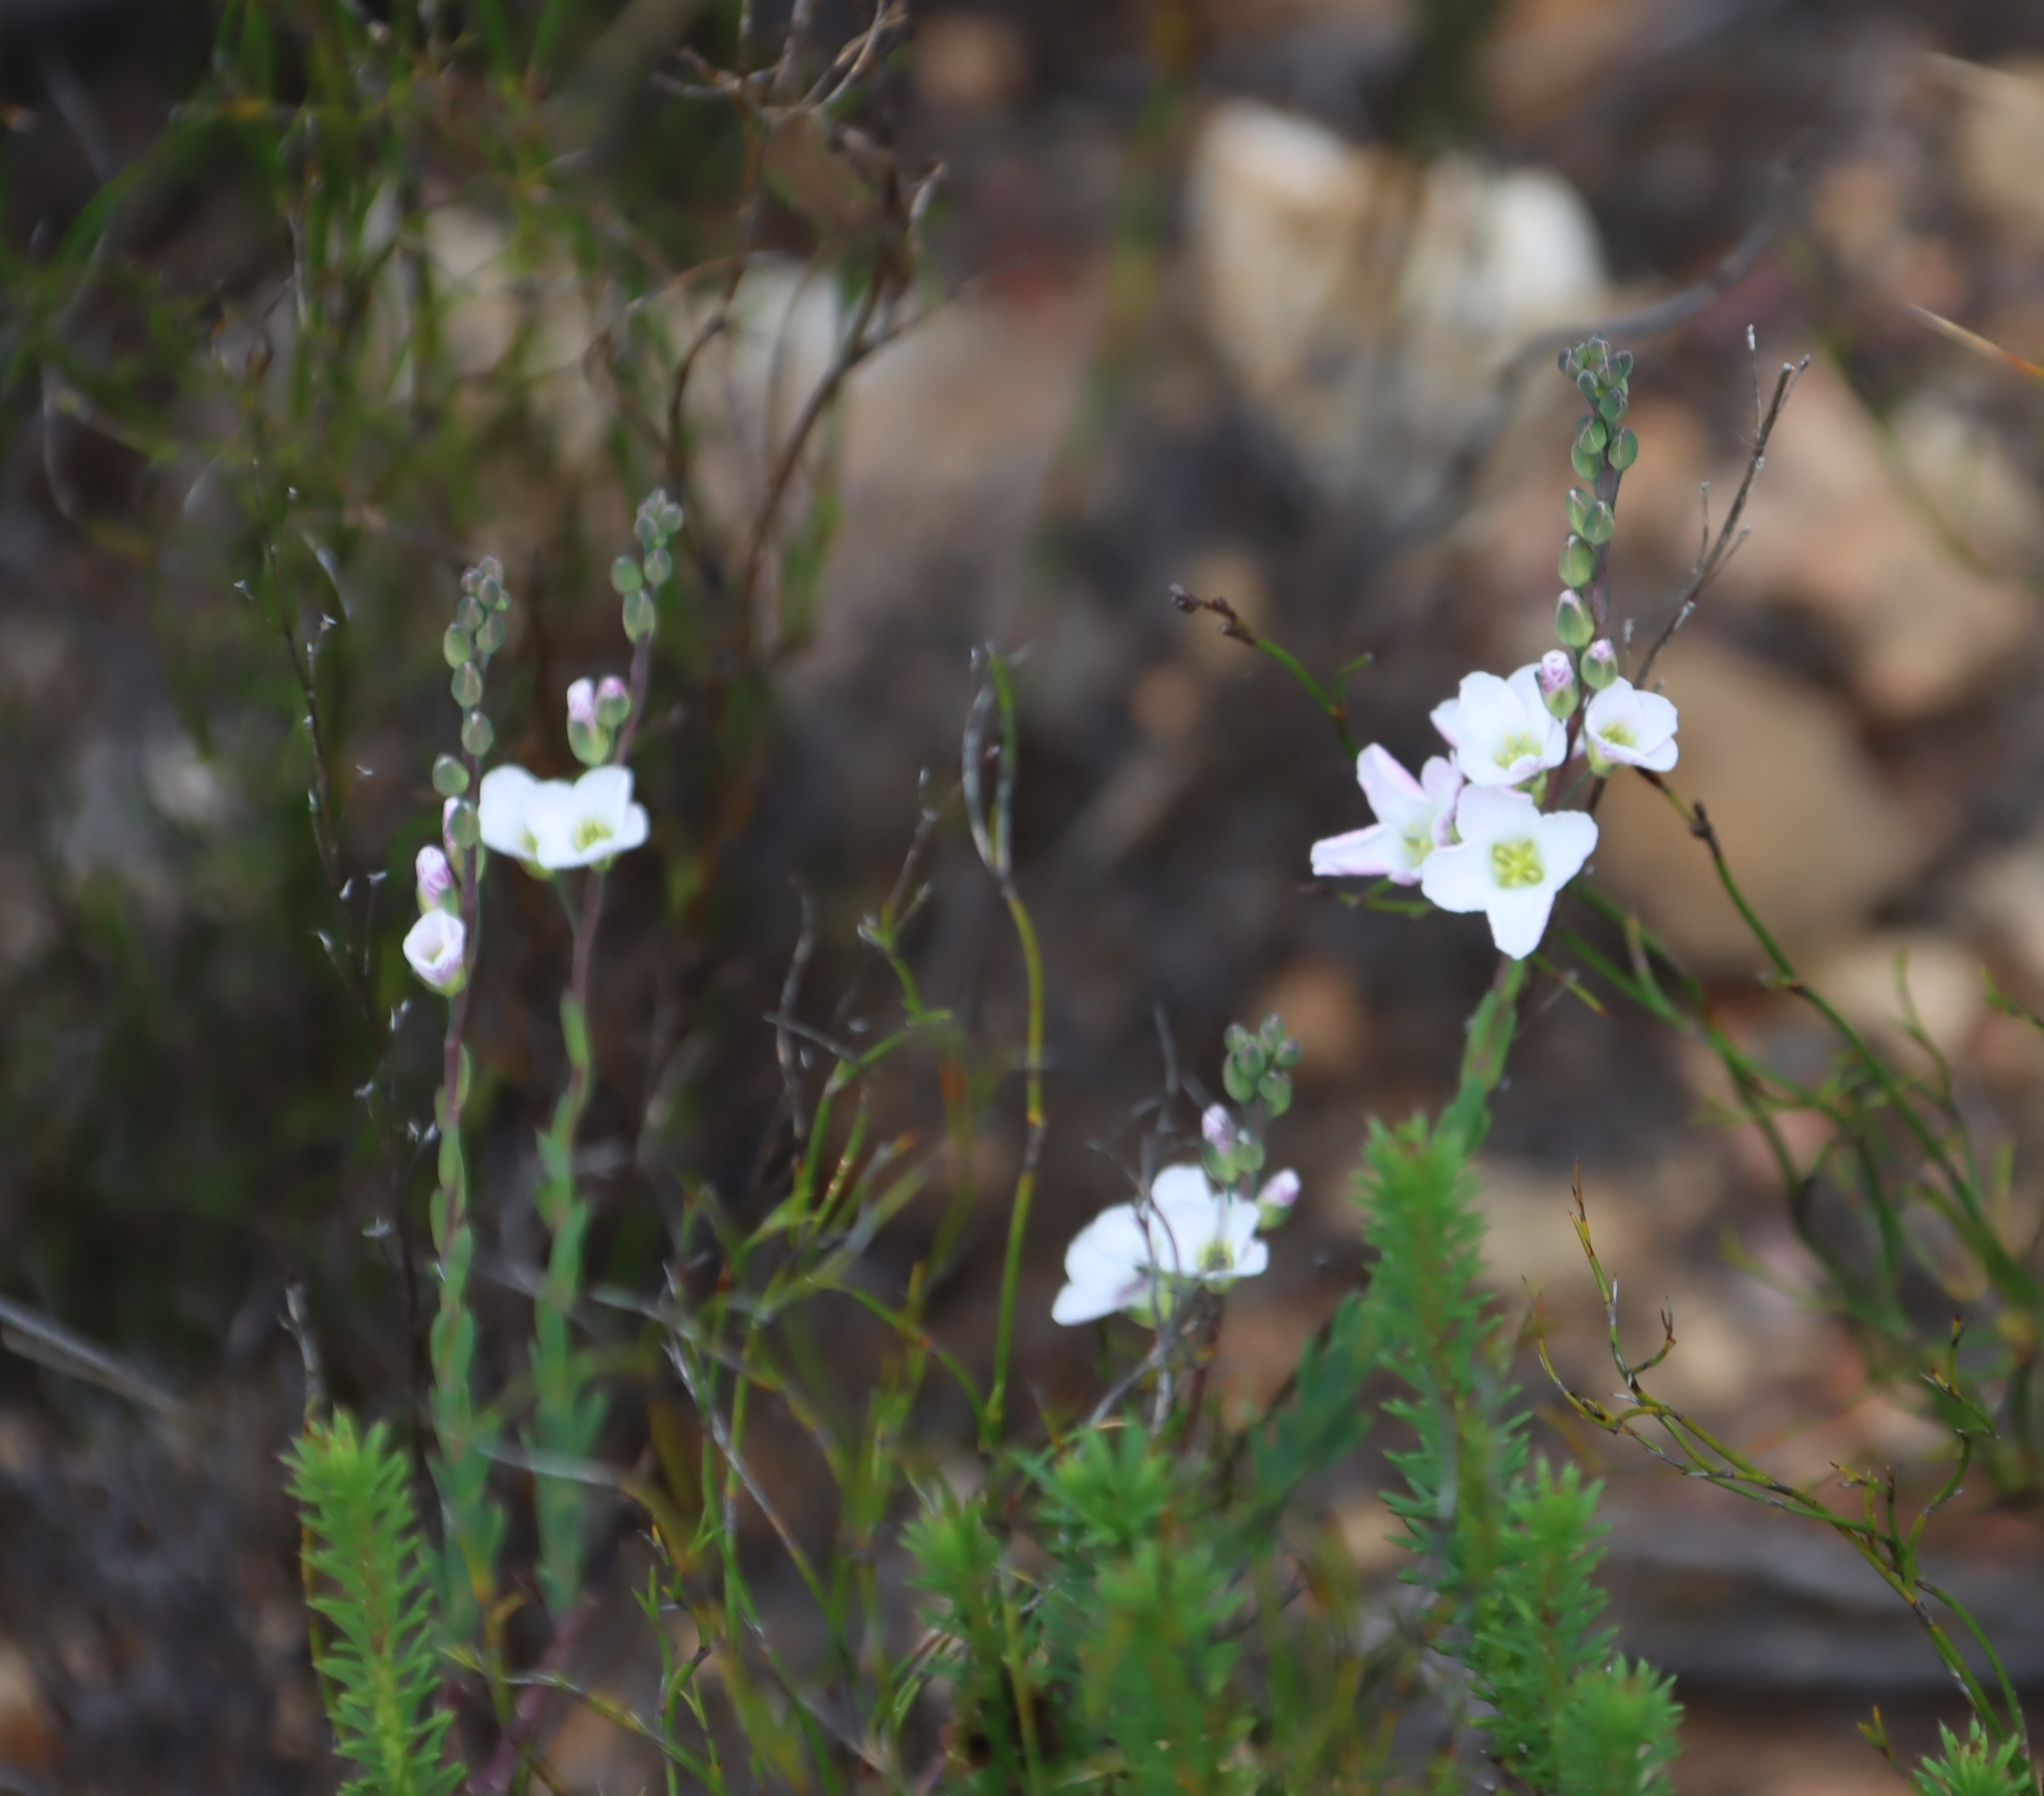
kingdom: Plantae
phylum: Tracheophyta
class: Magnoliopsida
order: Brassicales
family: Brassicaceae
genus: Heliophila
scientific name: Heliophila glauca
